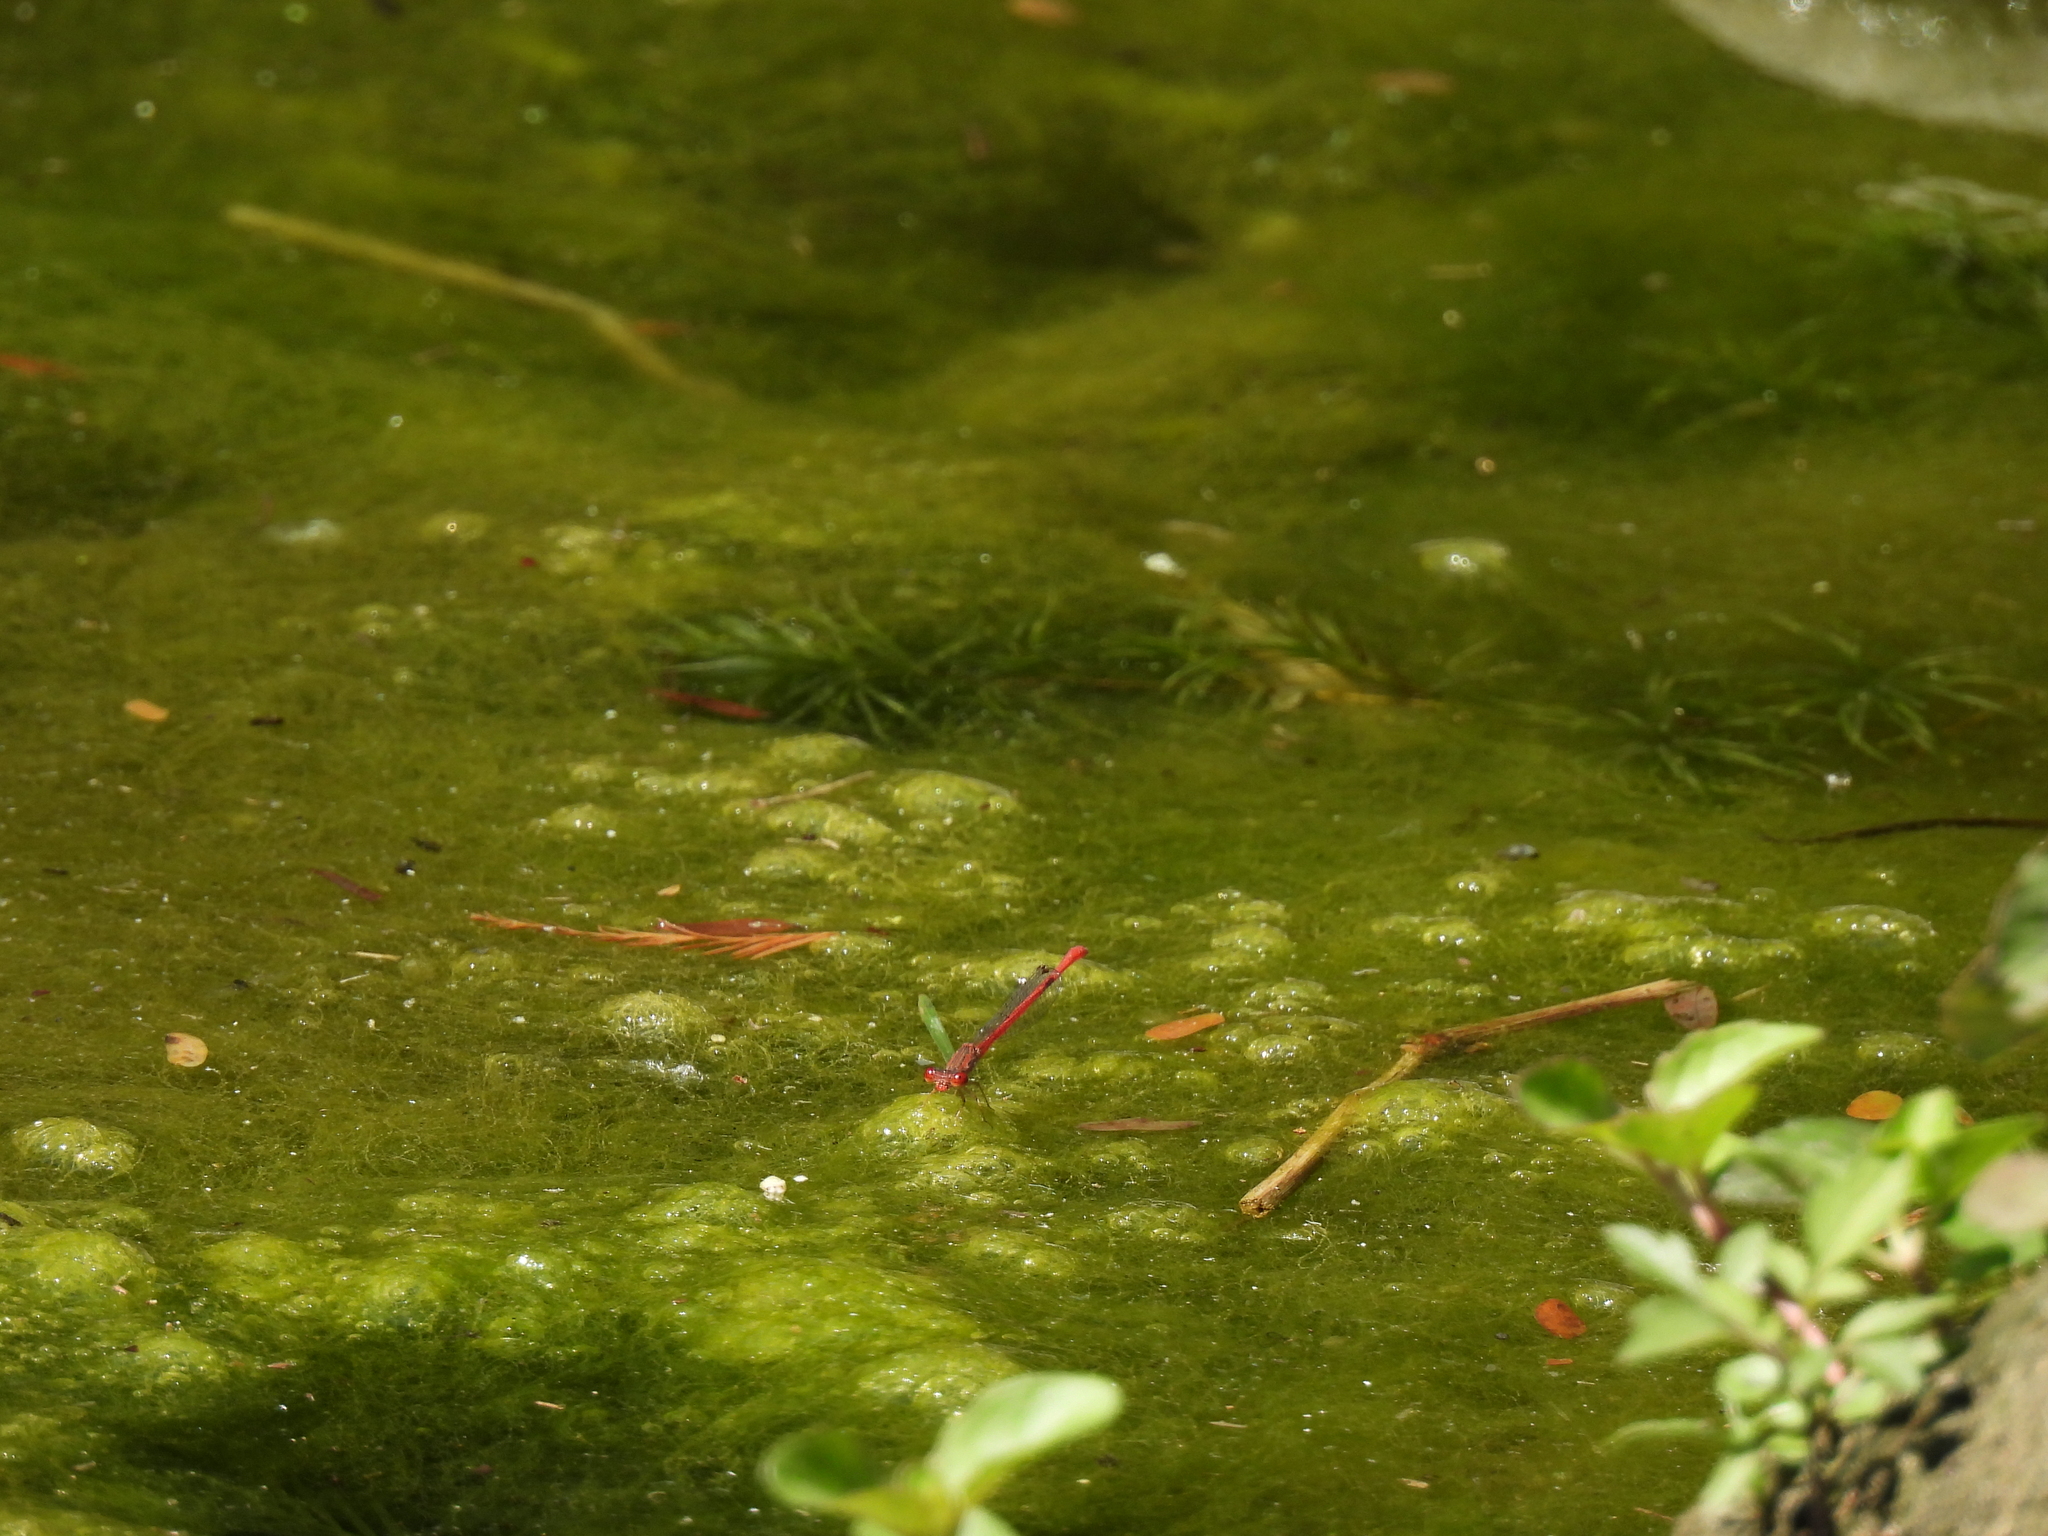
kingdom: Animalia
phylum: Arthropoda
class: Insecta
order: Odonata
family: Coenagrionidae
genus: Telebasis
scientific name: Telebasis salva
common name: Desert firetail
